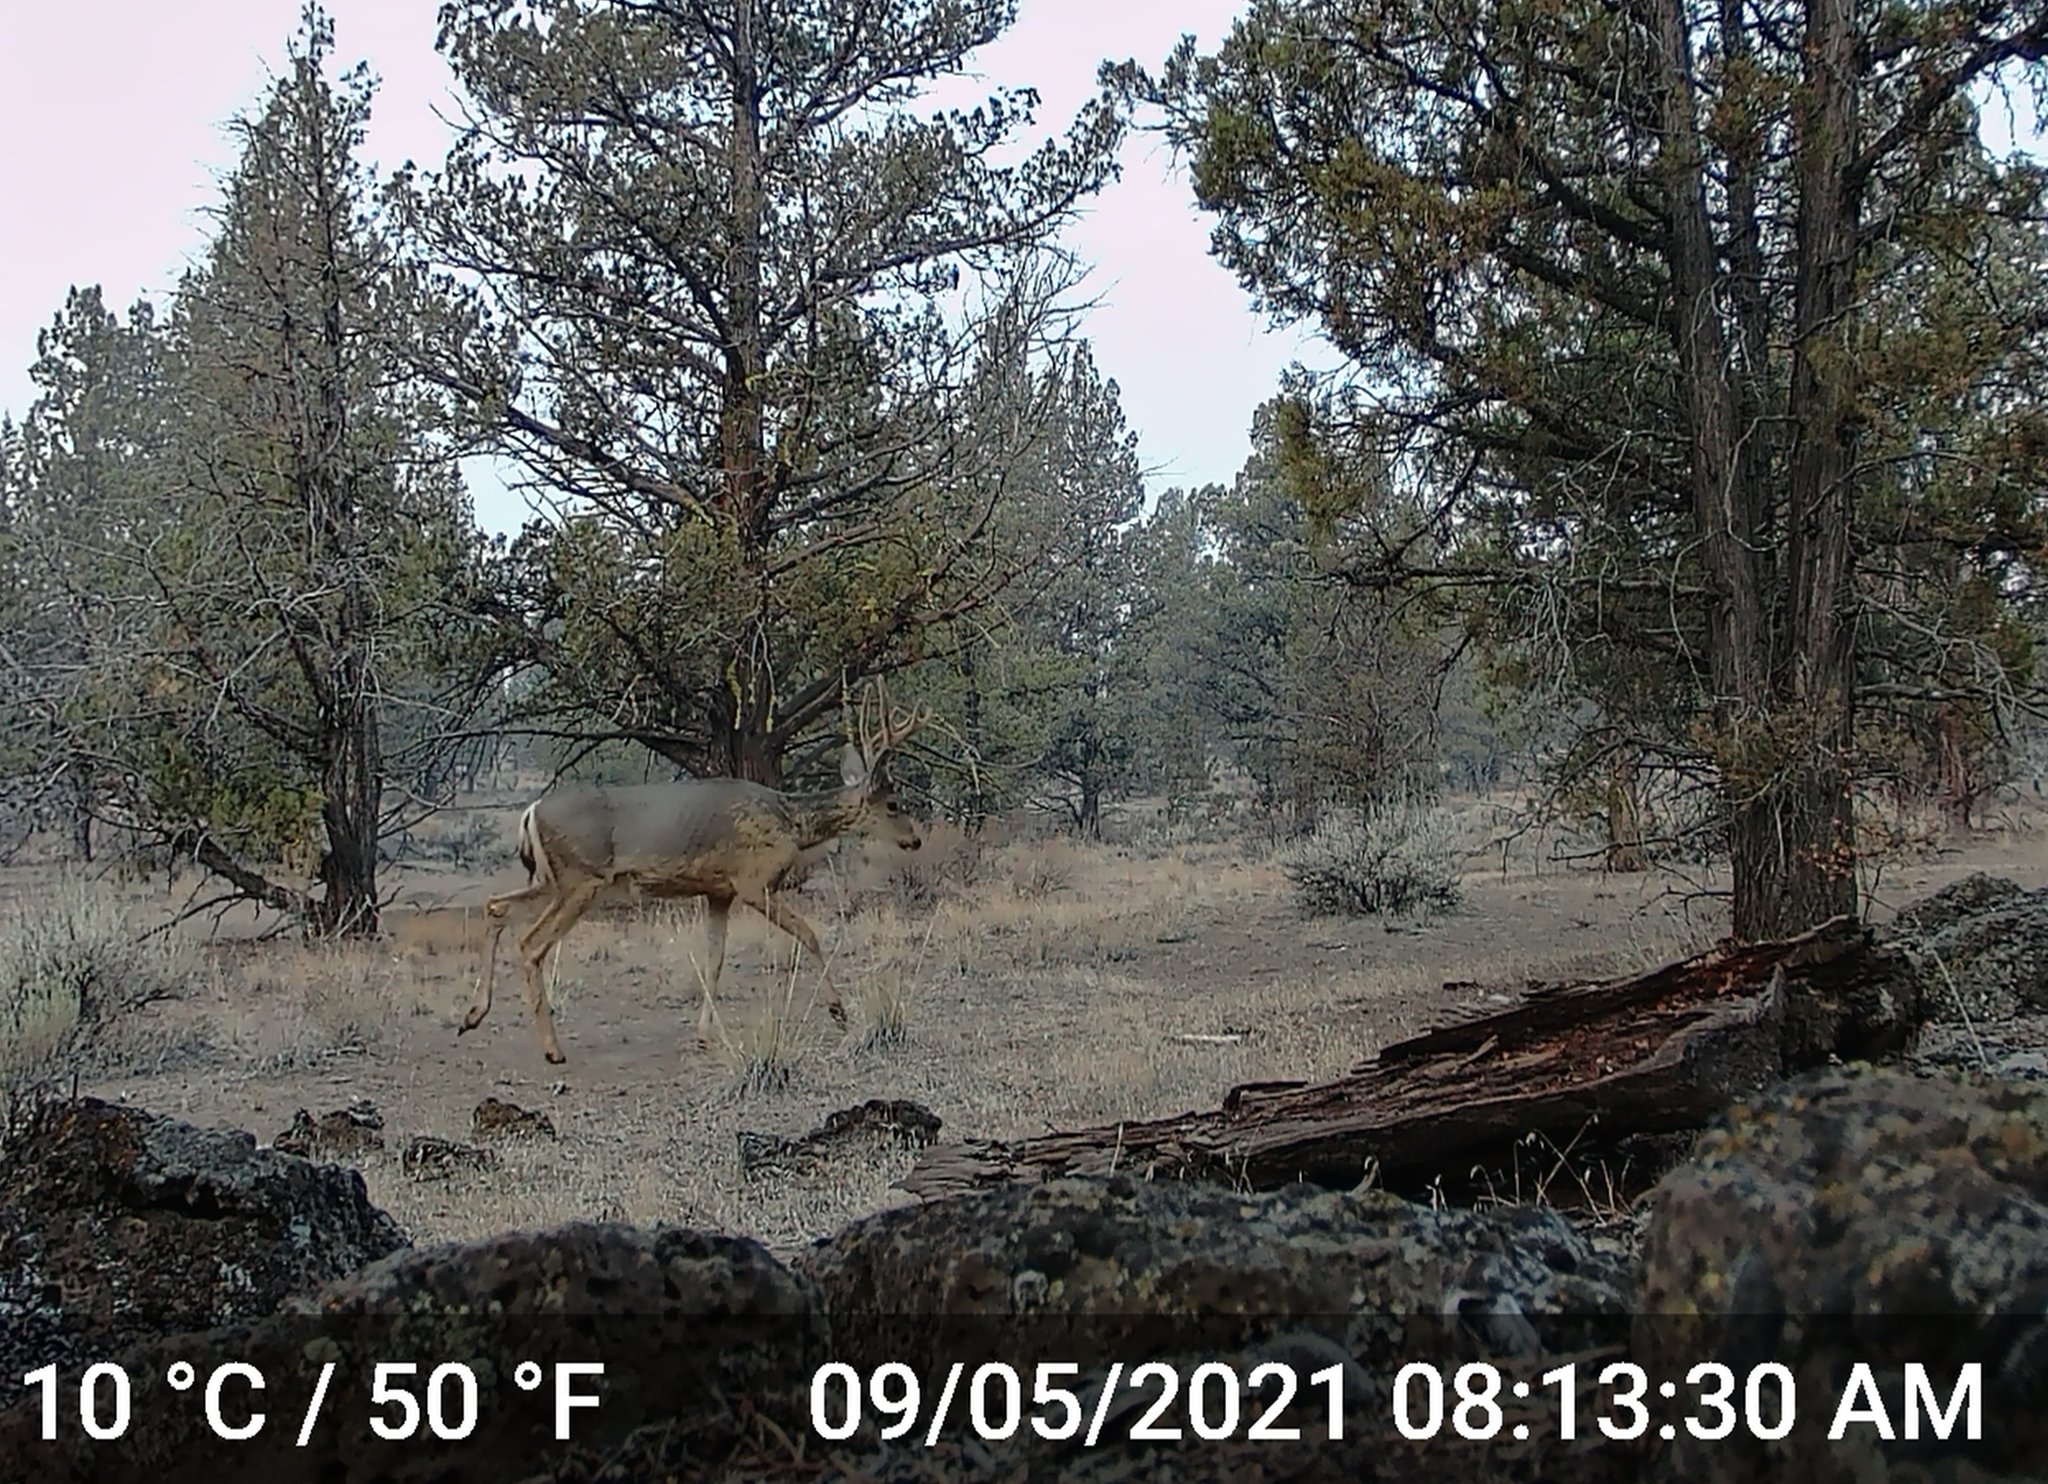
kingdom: Animalia
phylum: Chordata
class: Mammalia
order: Artiodactyla
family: Cervidae
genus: Odocoileus
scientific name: Odocoileus hemionus
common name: Mule deer
